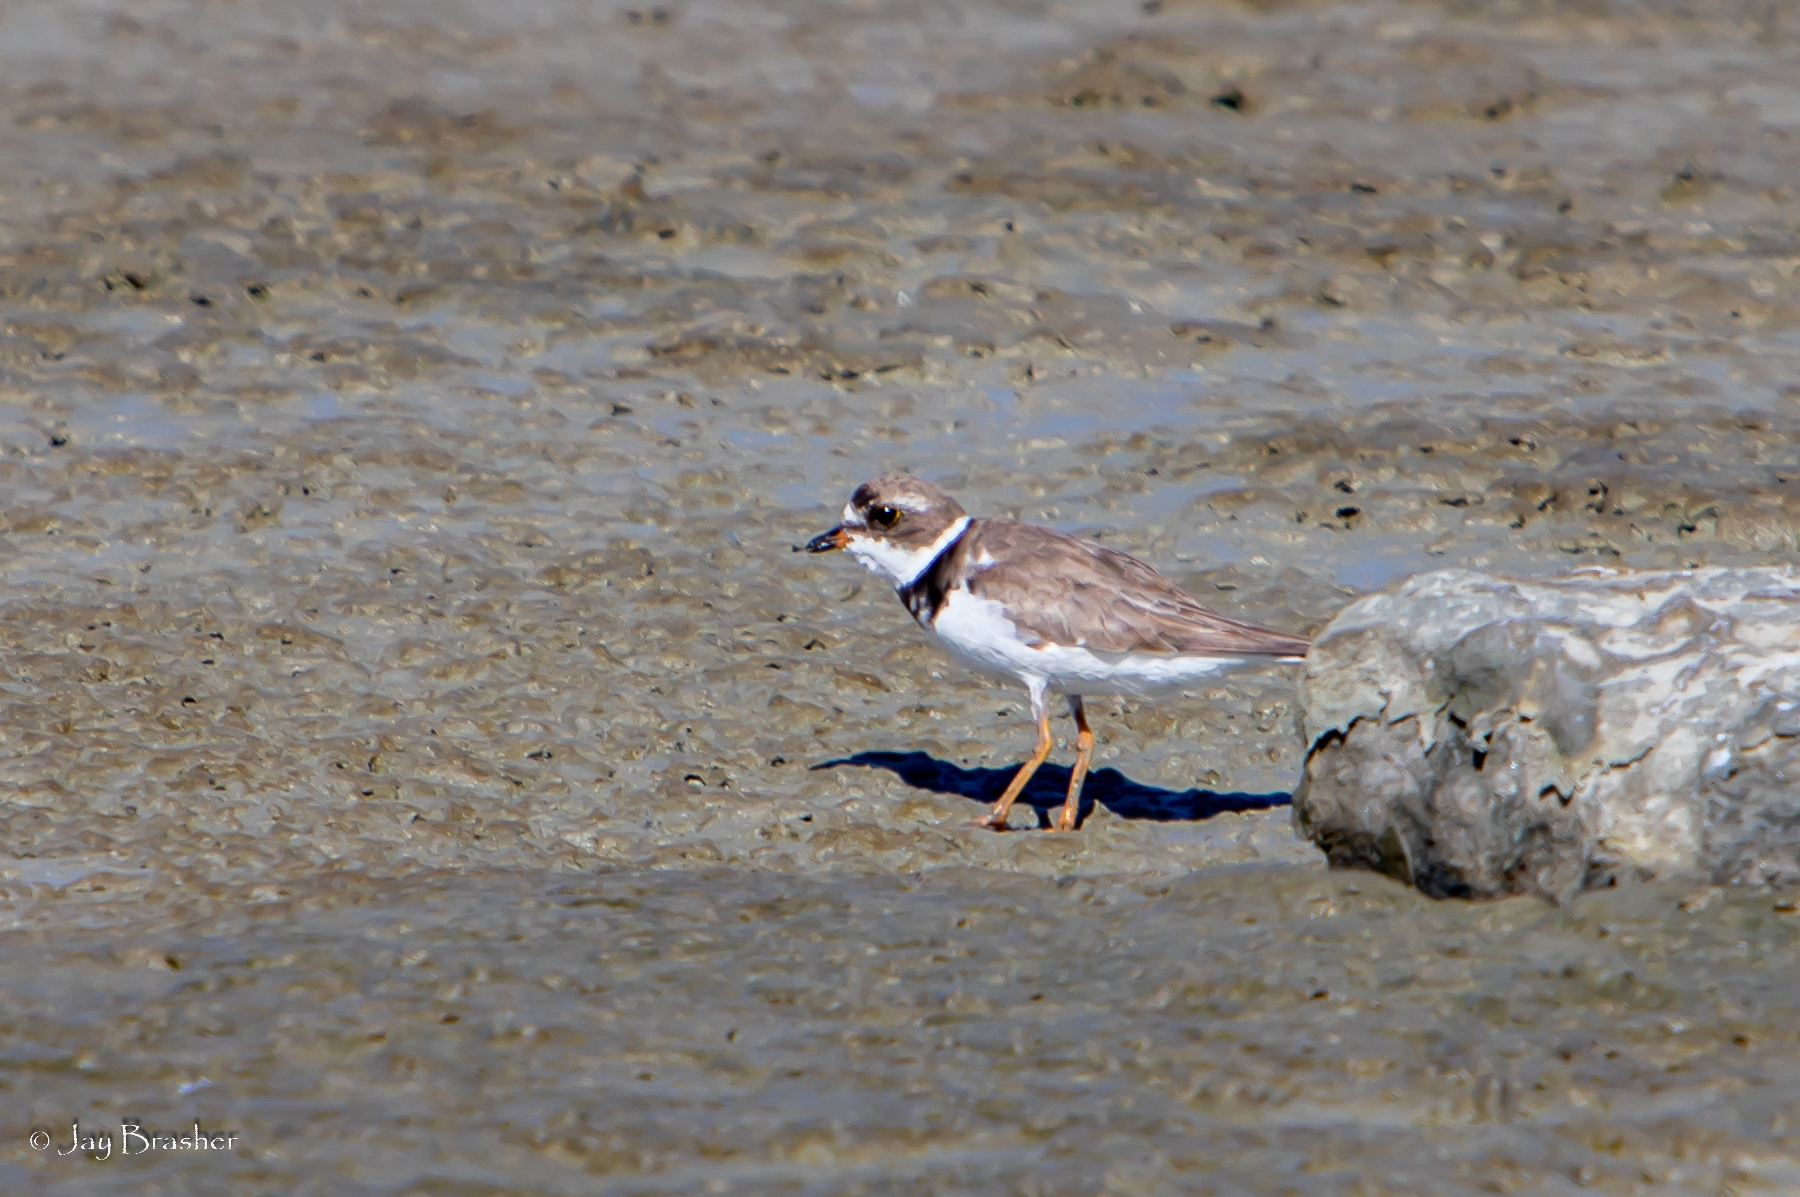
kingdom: Animalia
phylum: Chordata
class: Aves
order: Charadriiformes
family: Charadriidae
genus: Charadrius
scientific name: Charadrius semipalmatus
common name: Semipalmated plover
